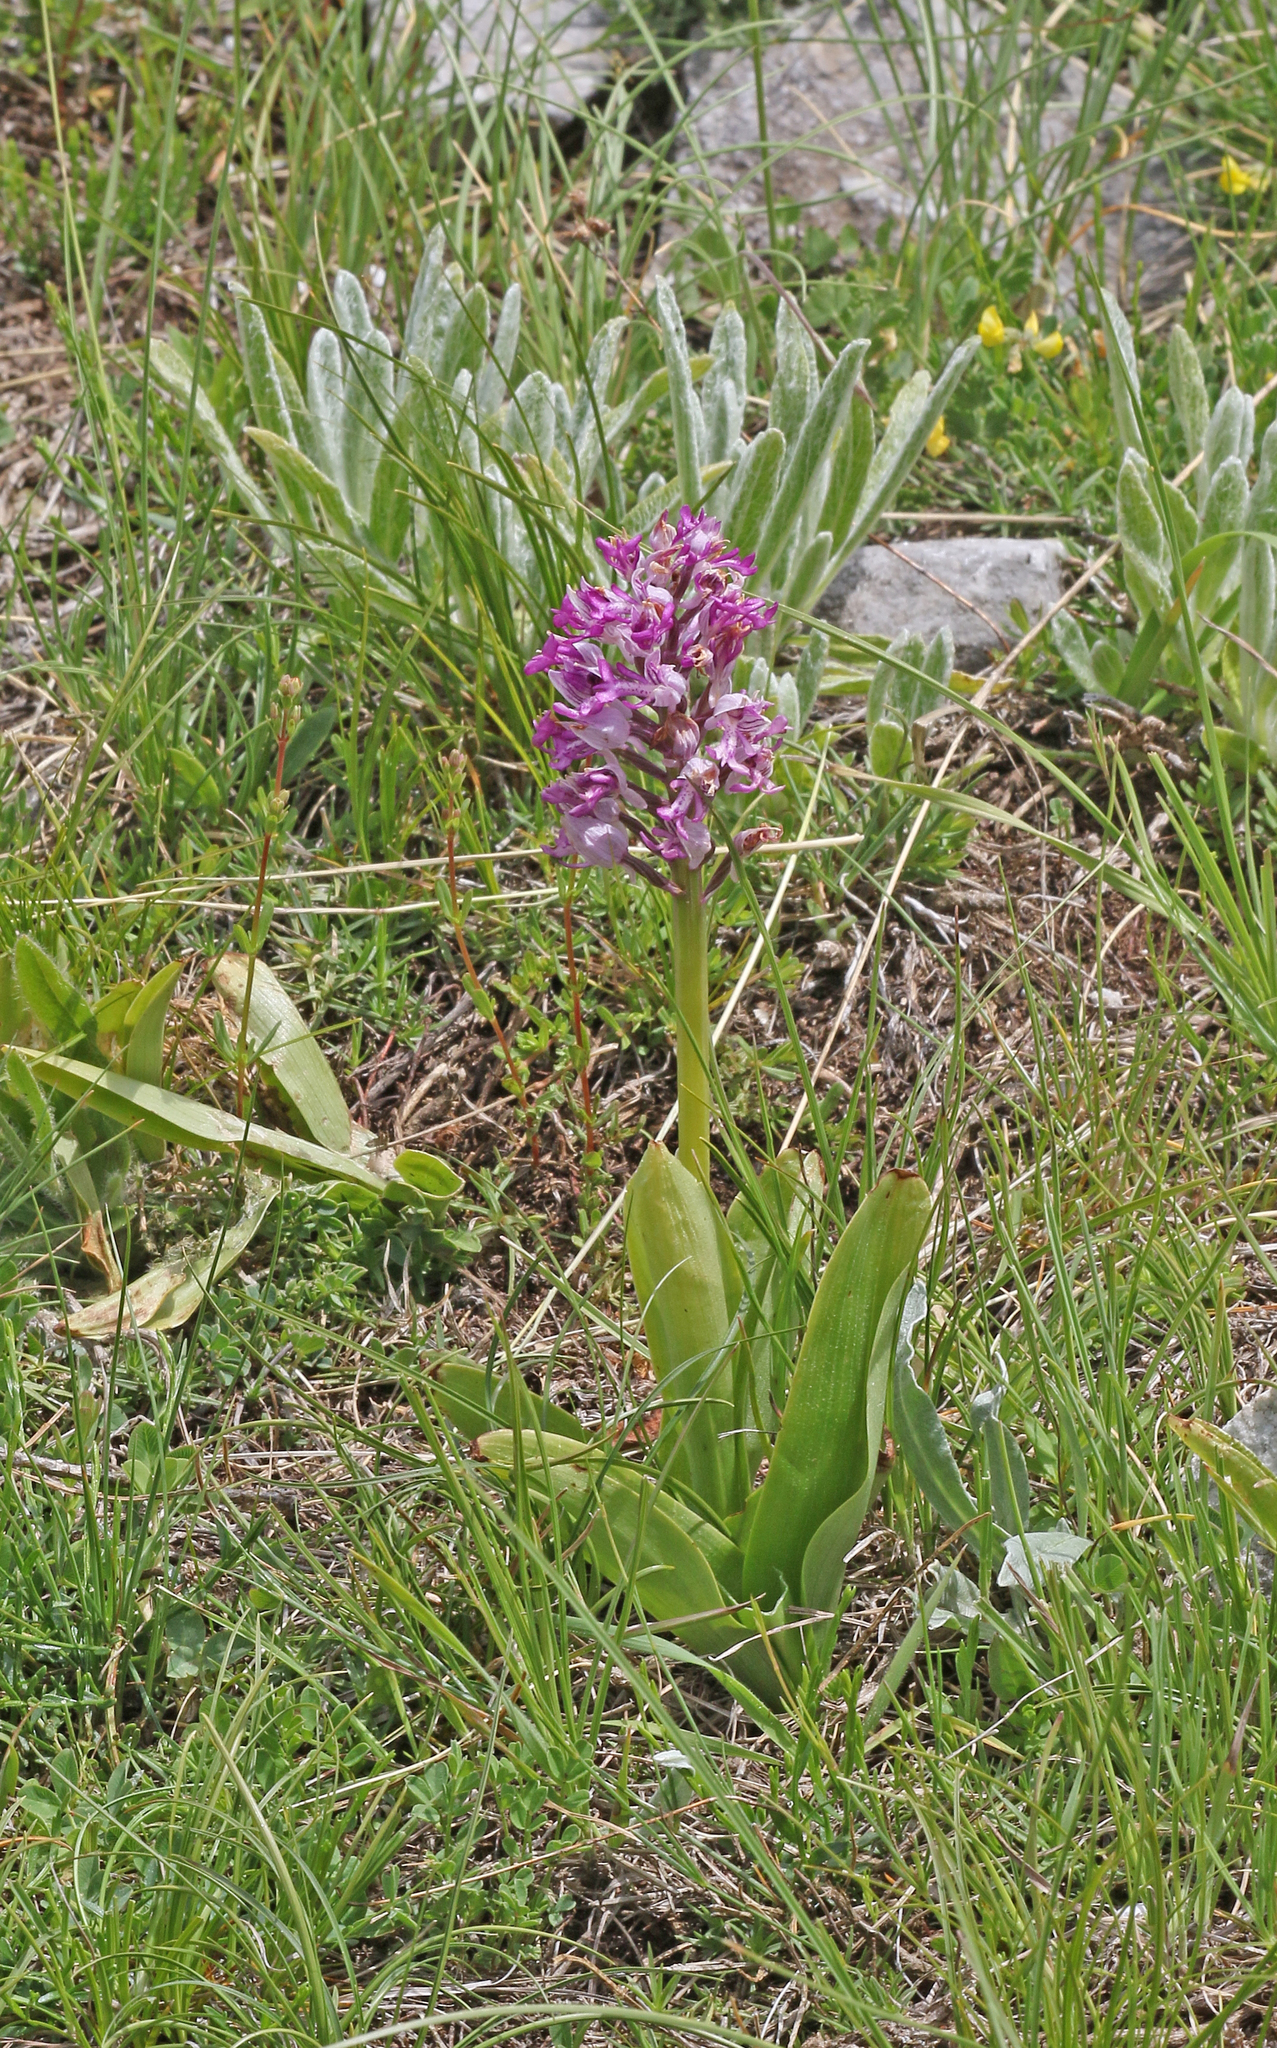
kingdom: Plantae
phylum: Tracheophyta
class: Liliopsida
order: Asparagales
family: Orchidaceae
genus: Orchis
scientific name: Orchis militaris
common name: Military orchid
